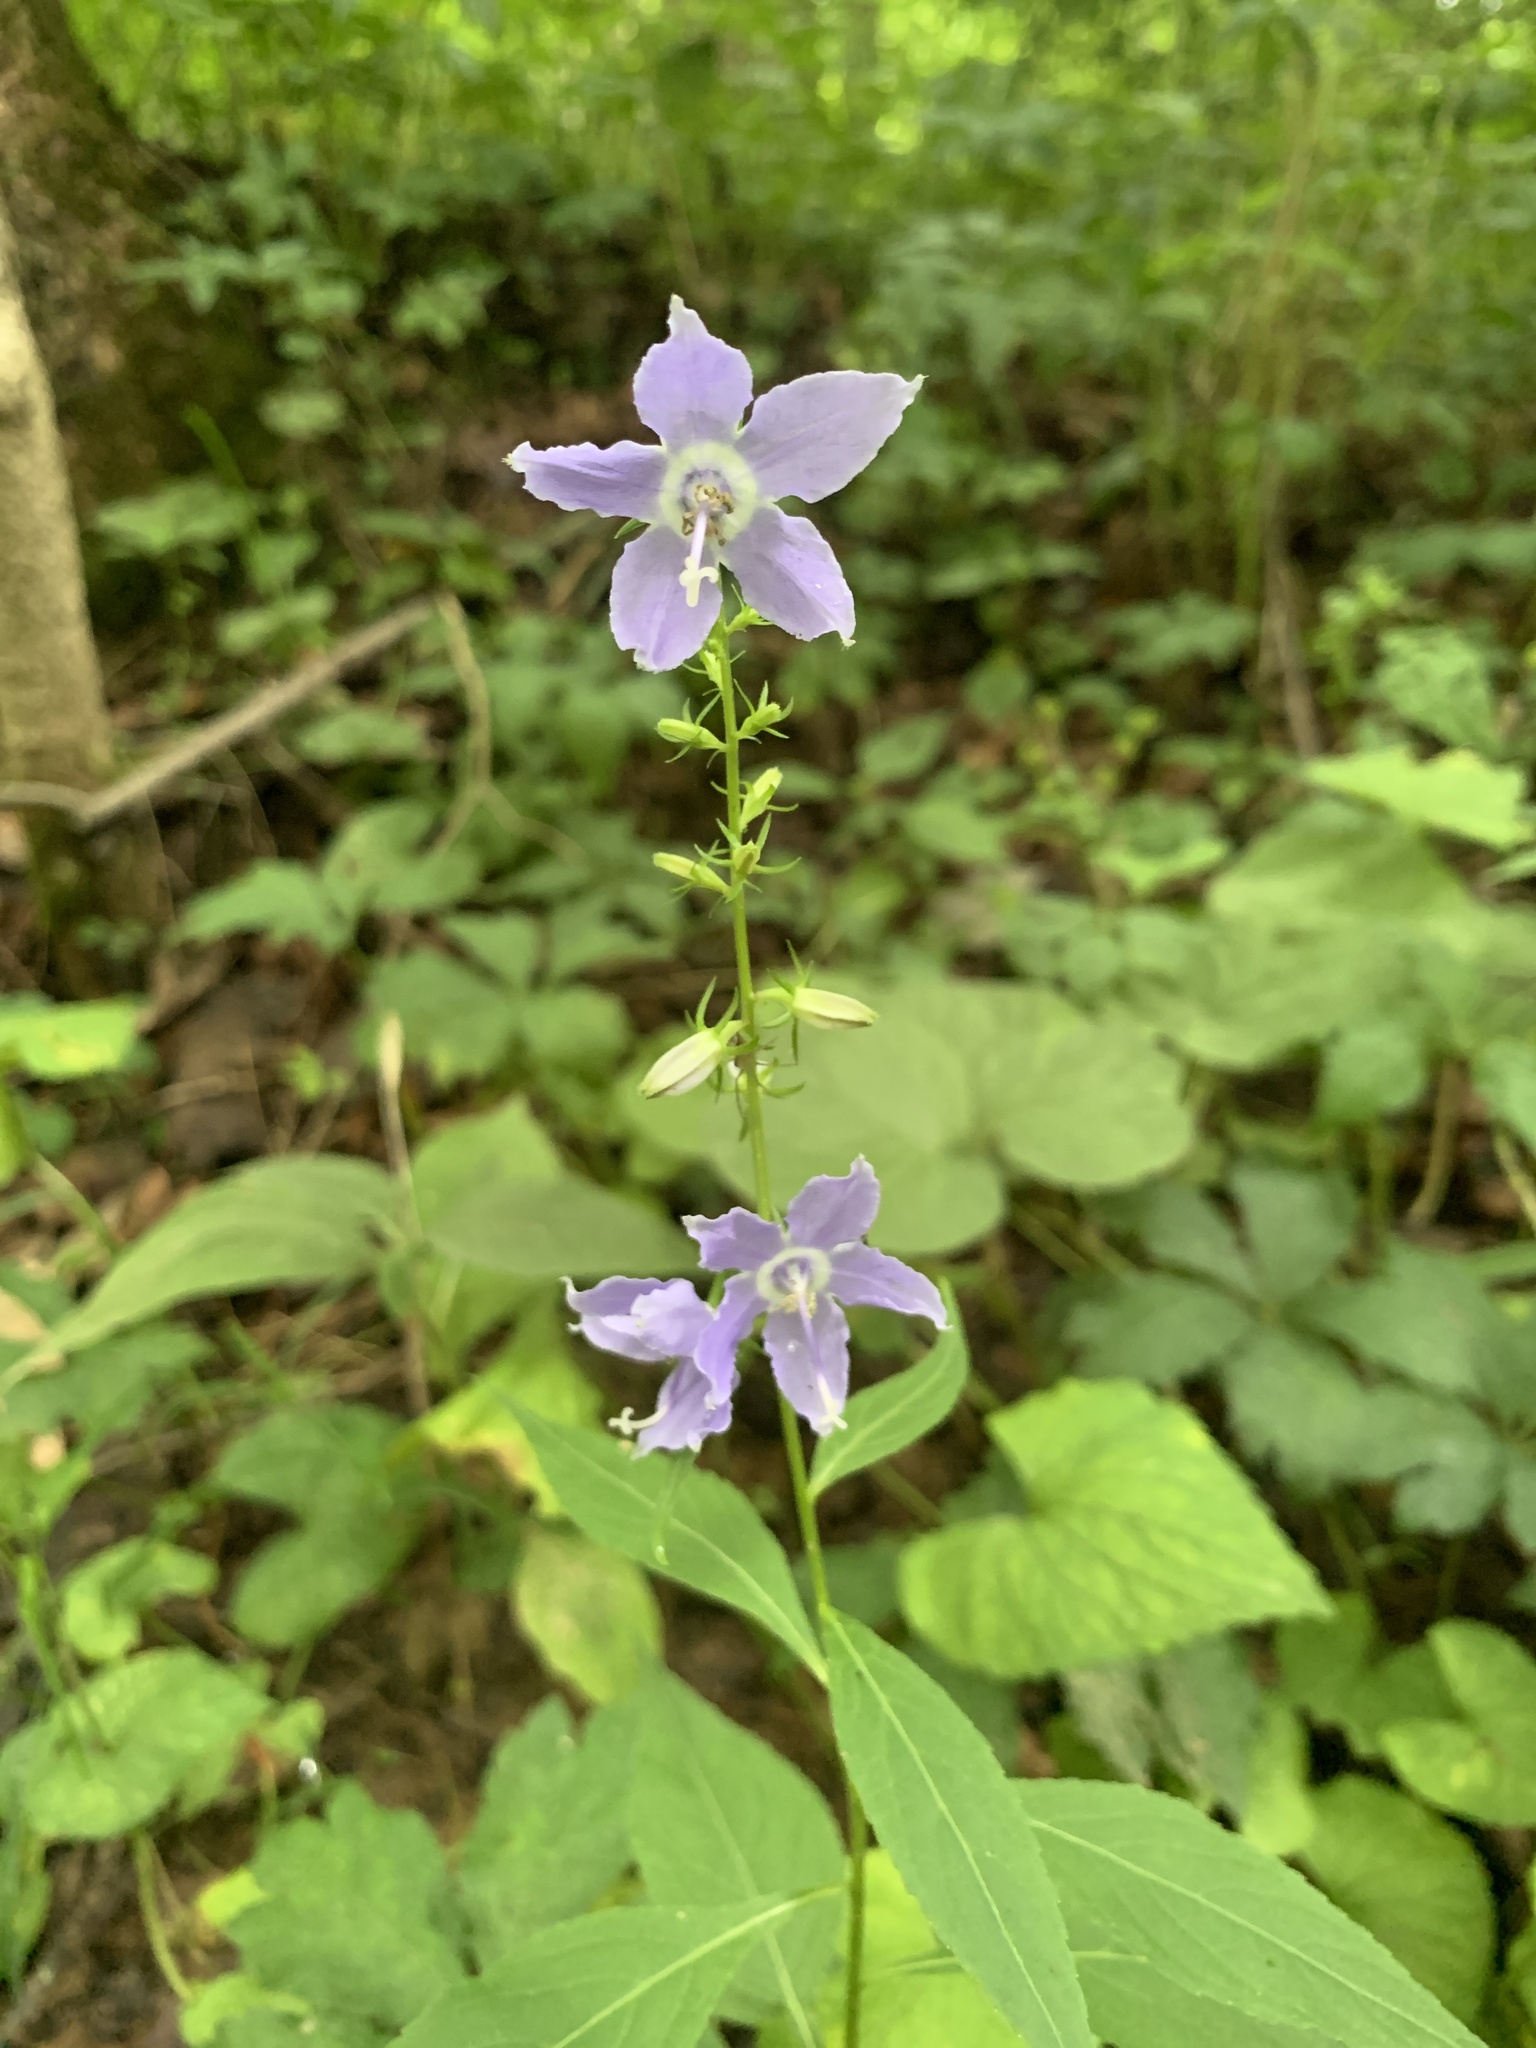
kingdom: Plantae
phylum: Tracheophyta
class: Magnoliopsida
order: Asterales
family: Campanulaceae
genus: Campanulastrum
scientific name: Campanulastrum americanum
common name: American bellflower
